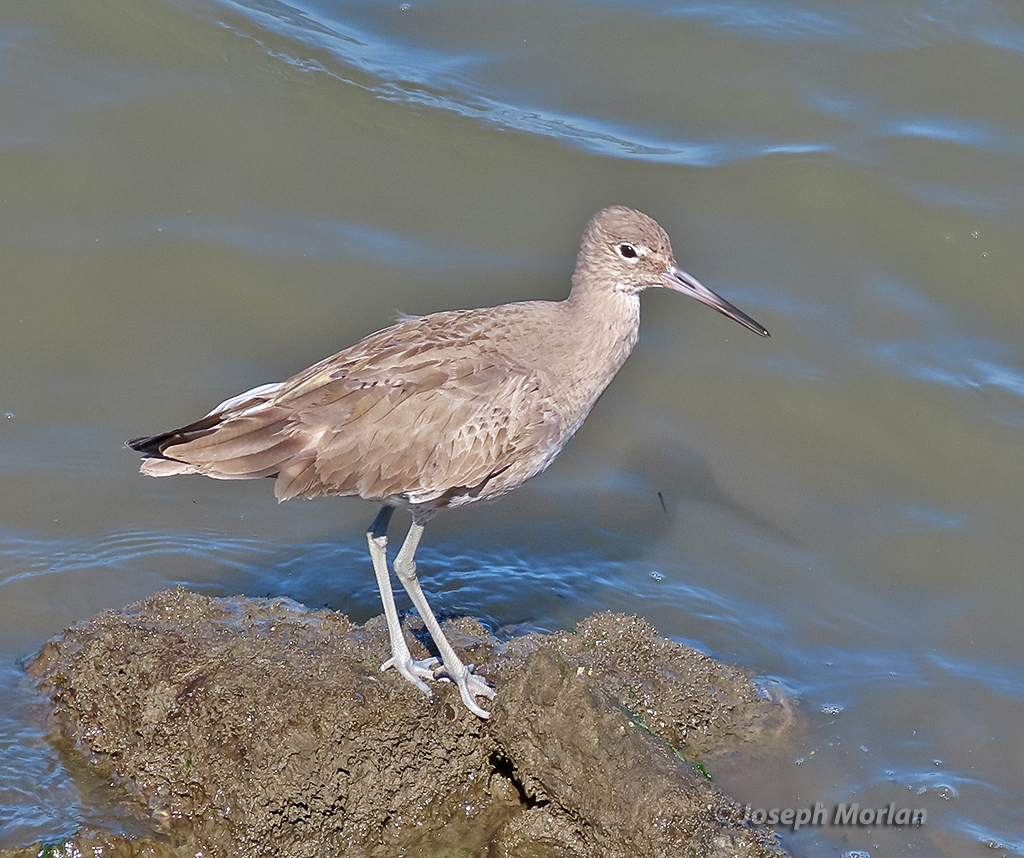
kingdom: Animalia
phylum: Chordata
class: Aves
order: Charadriiformes
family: Scolopacidae
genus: Tringa
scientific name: Tringa semipalmata
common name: Willet
